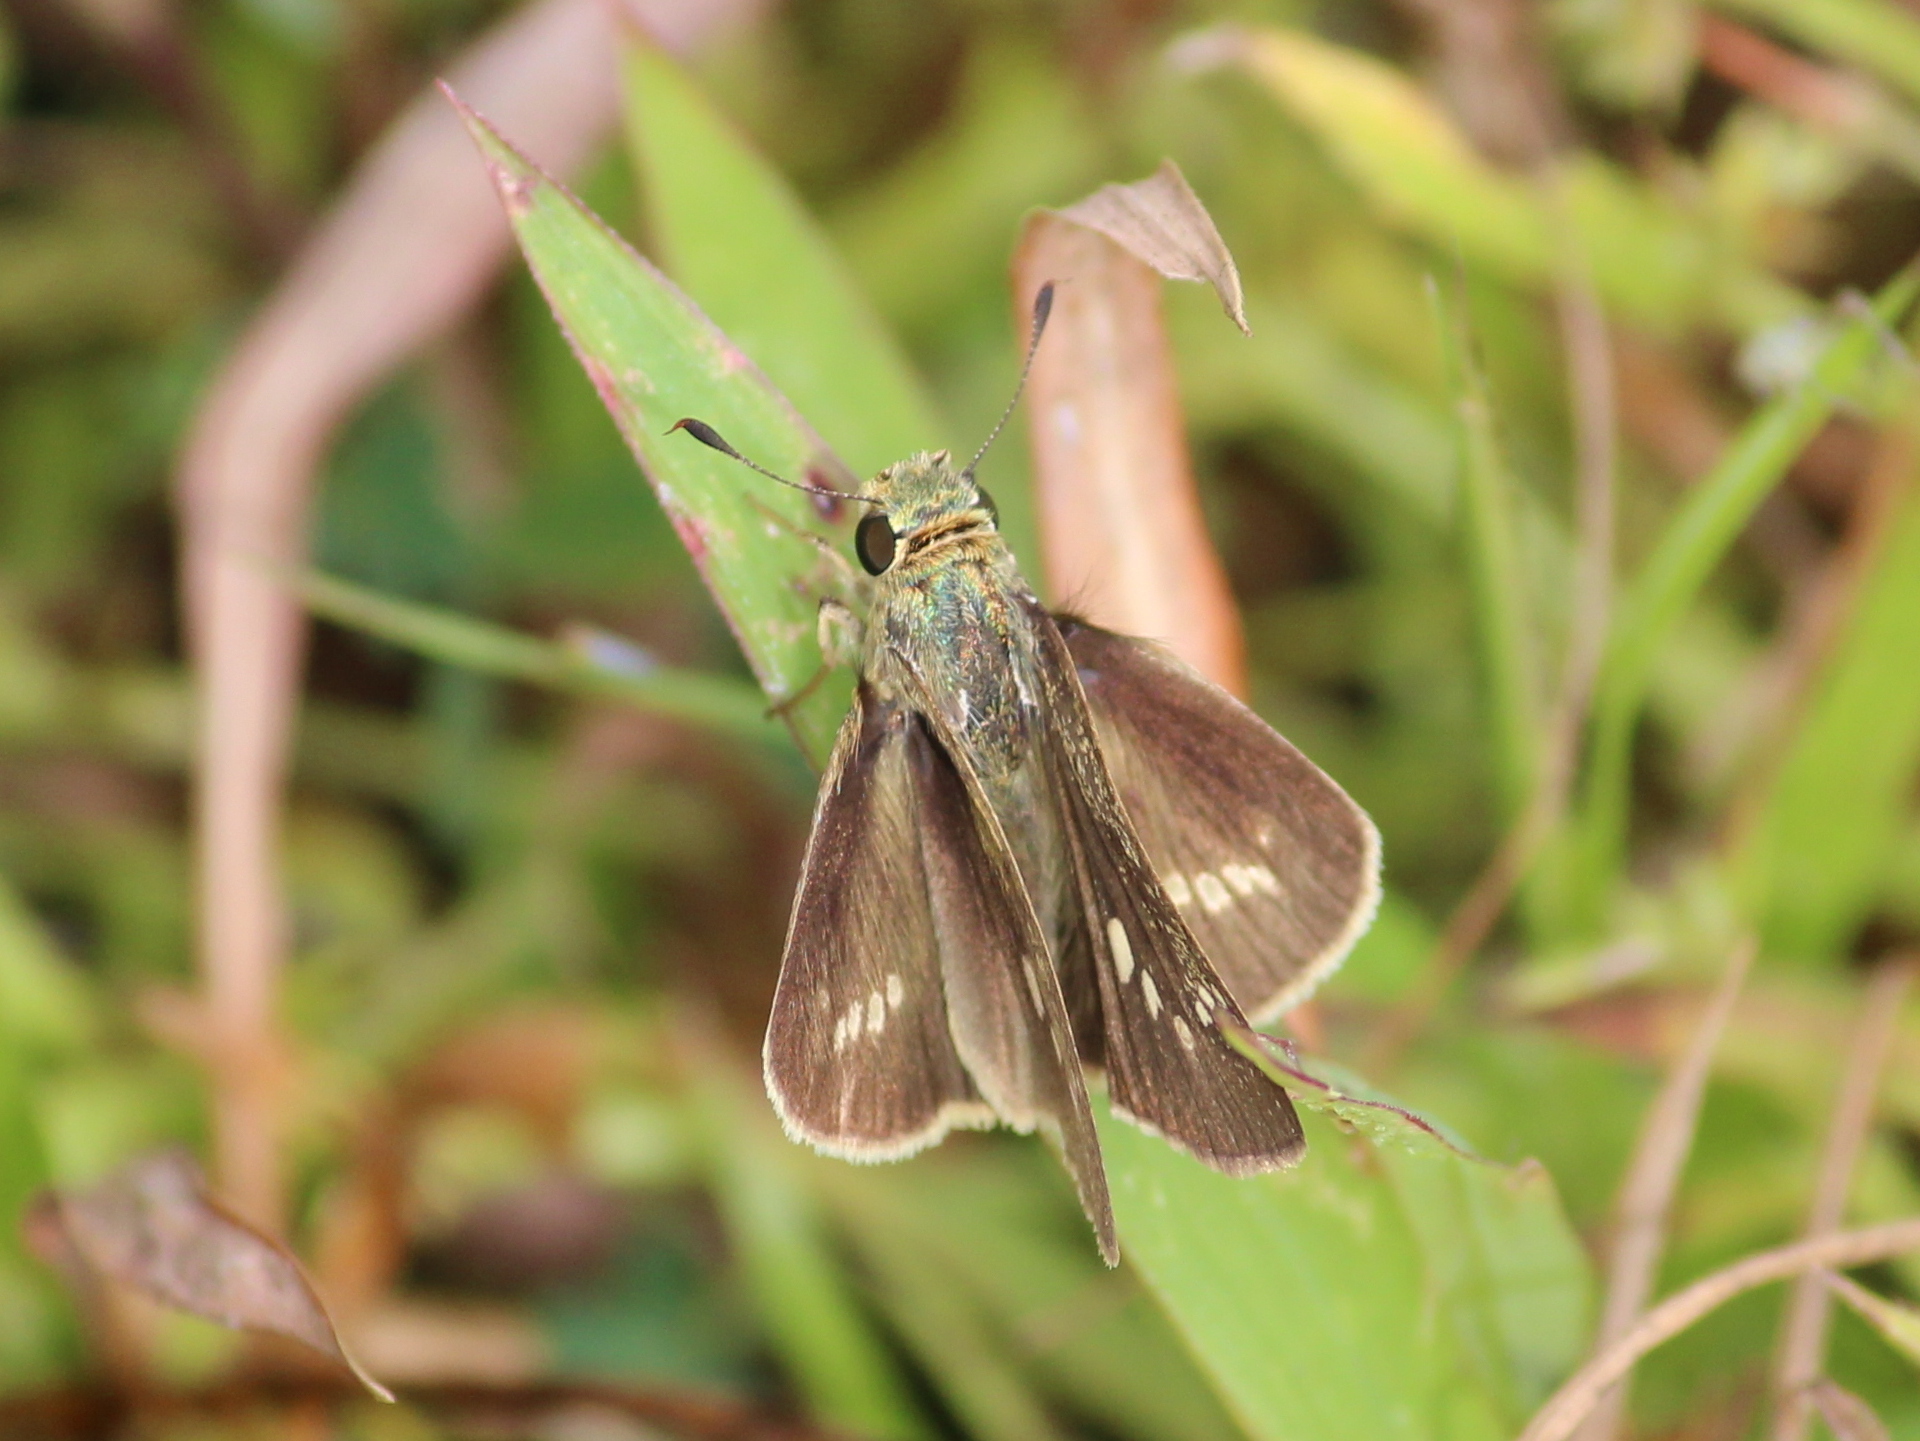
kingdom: Animalia
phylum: Arthropoda
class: Insecta
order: Lepidoptera
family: Hesperiidae
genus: Parnara
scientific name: Parnara naso
